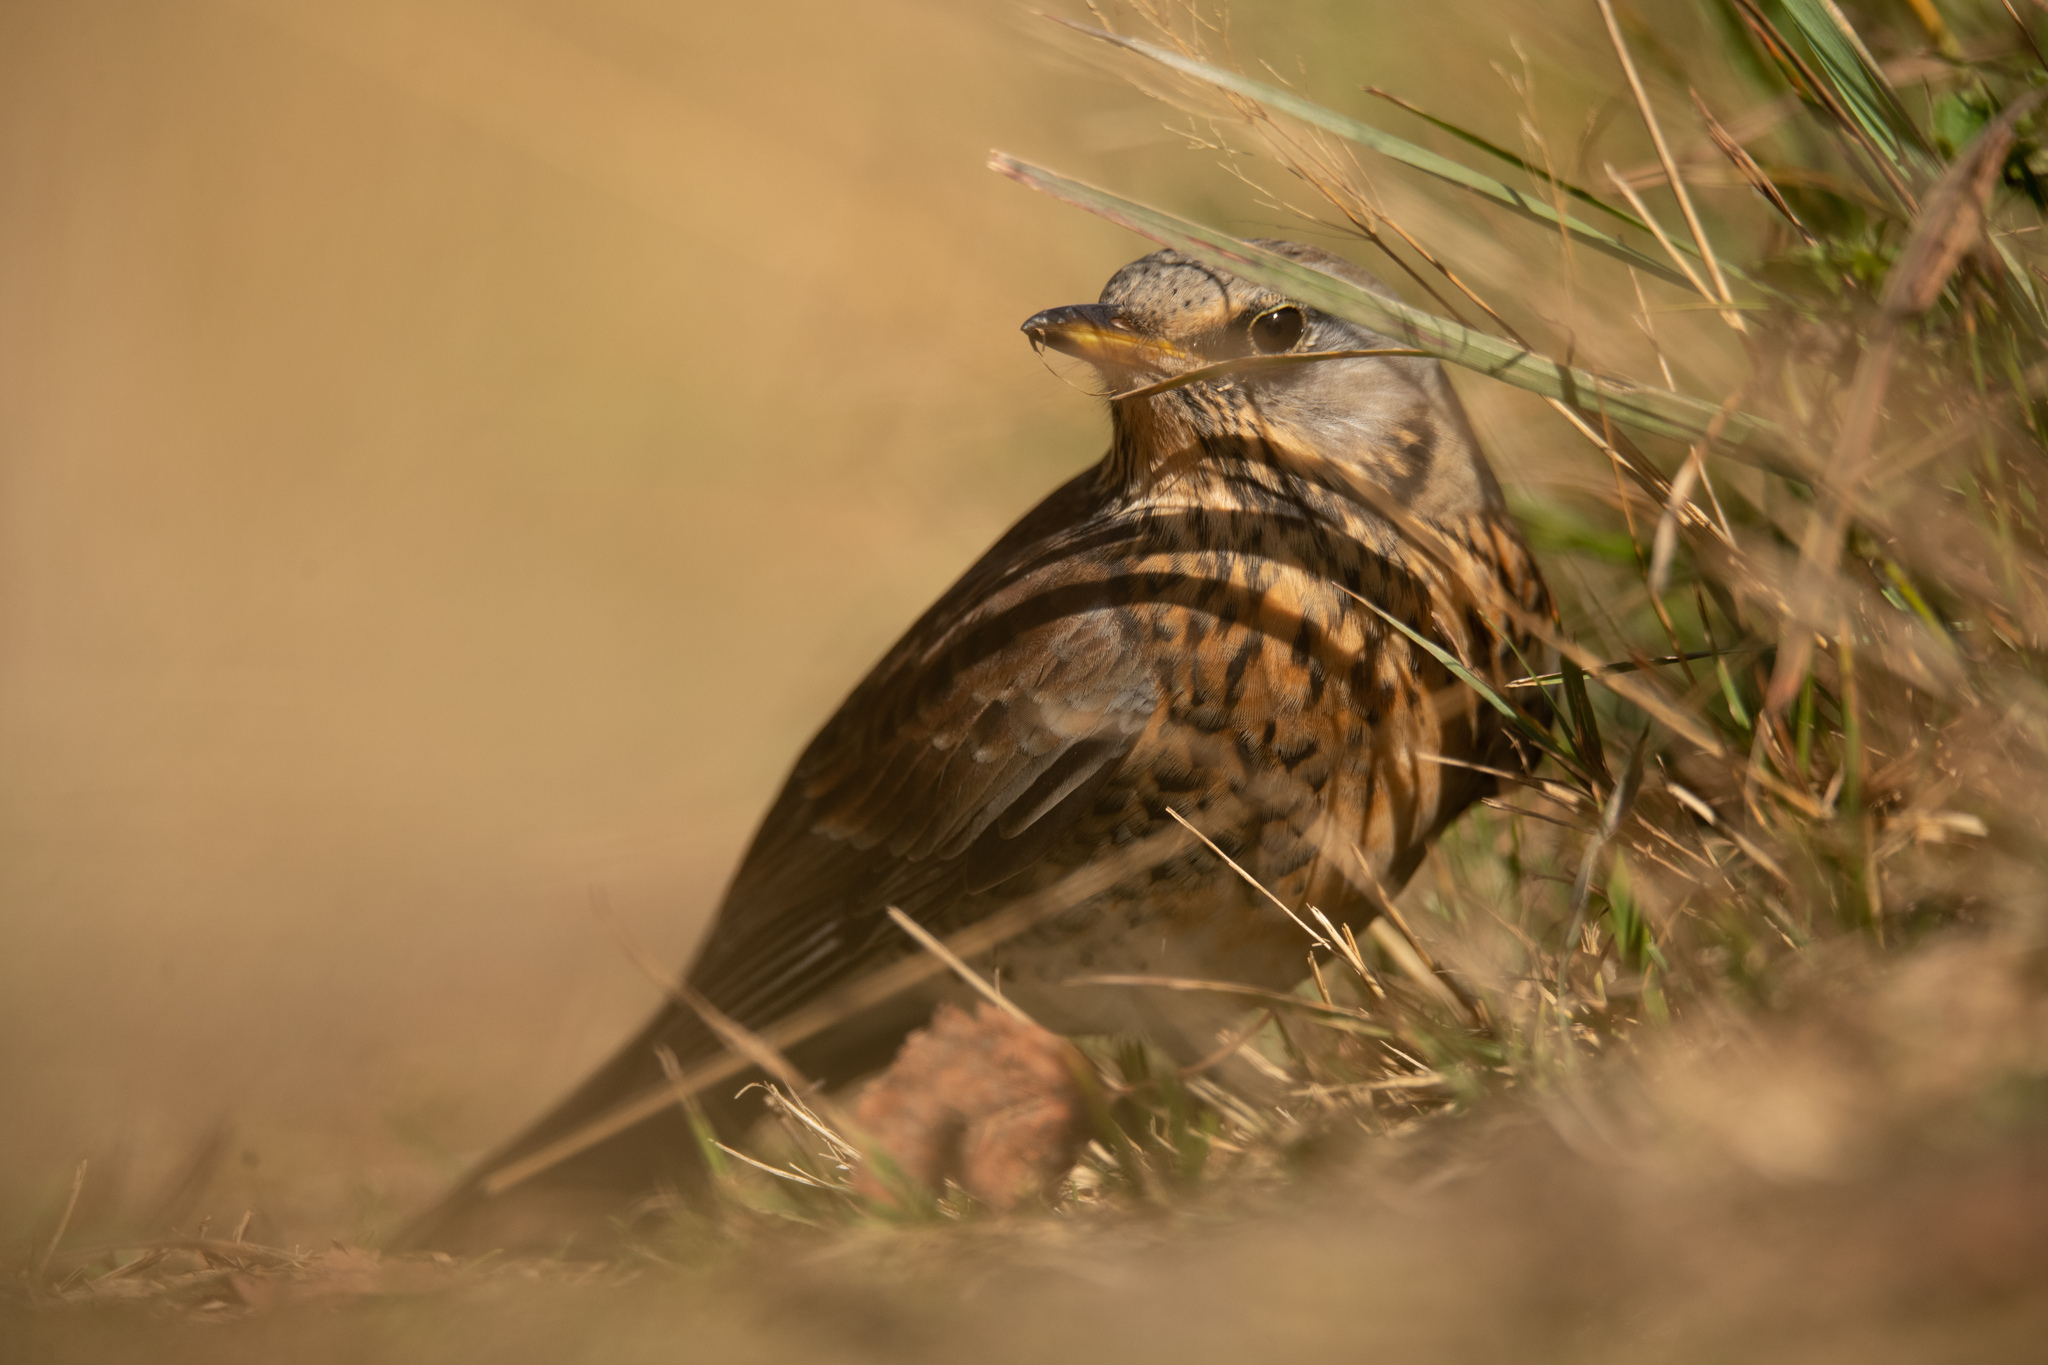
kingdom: Animalia
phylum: Chordata
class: Aves
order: Passeriformes
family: Turdidae
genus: Turdus
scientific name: Turdus pilaris
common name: Fieldfare
